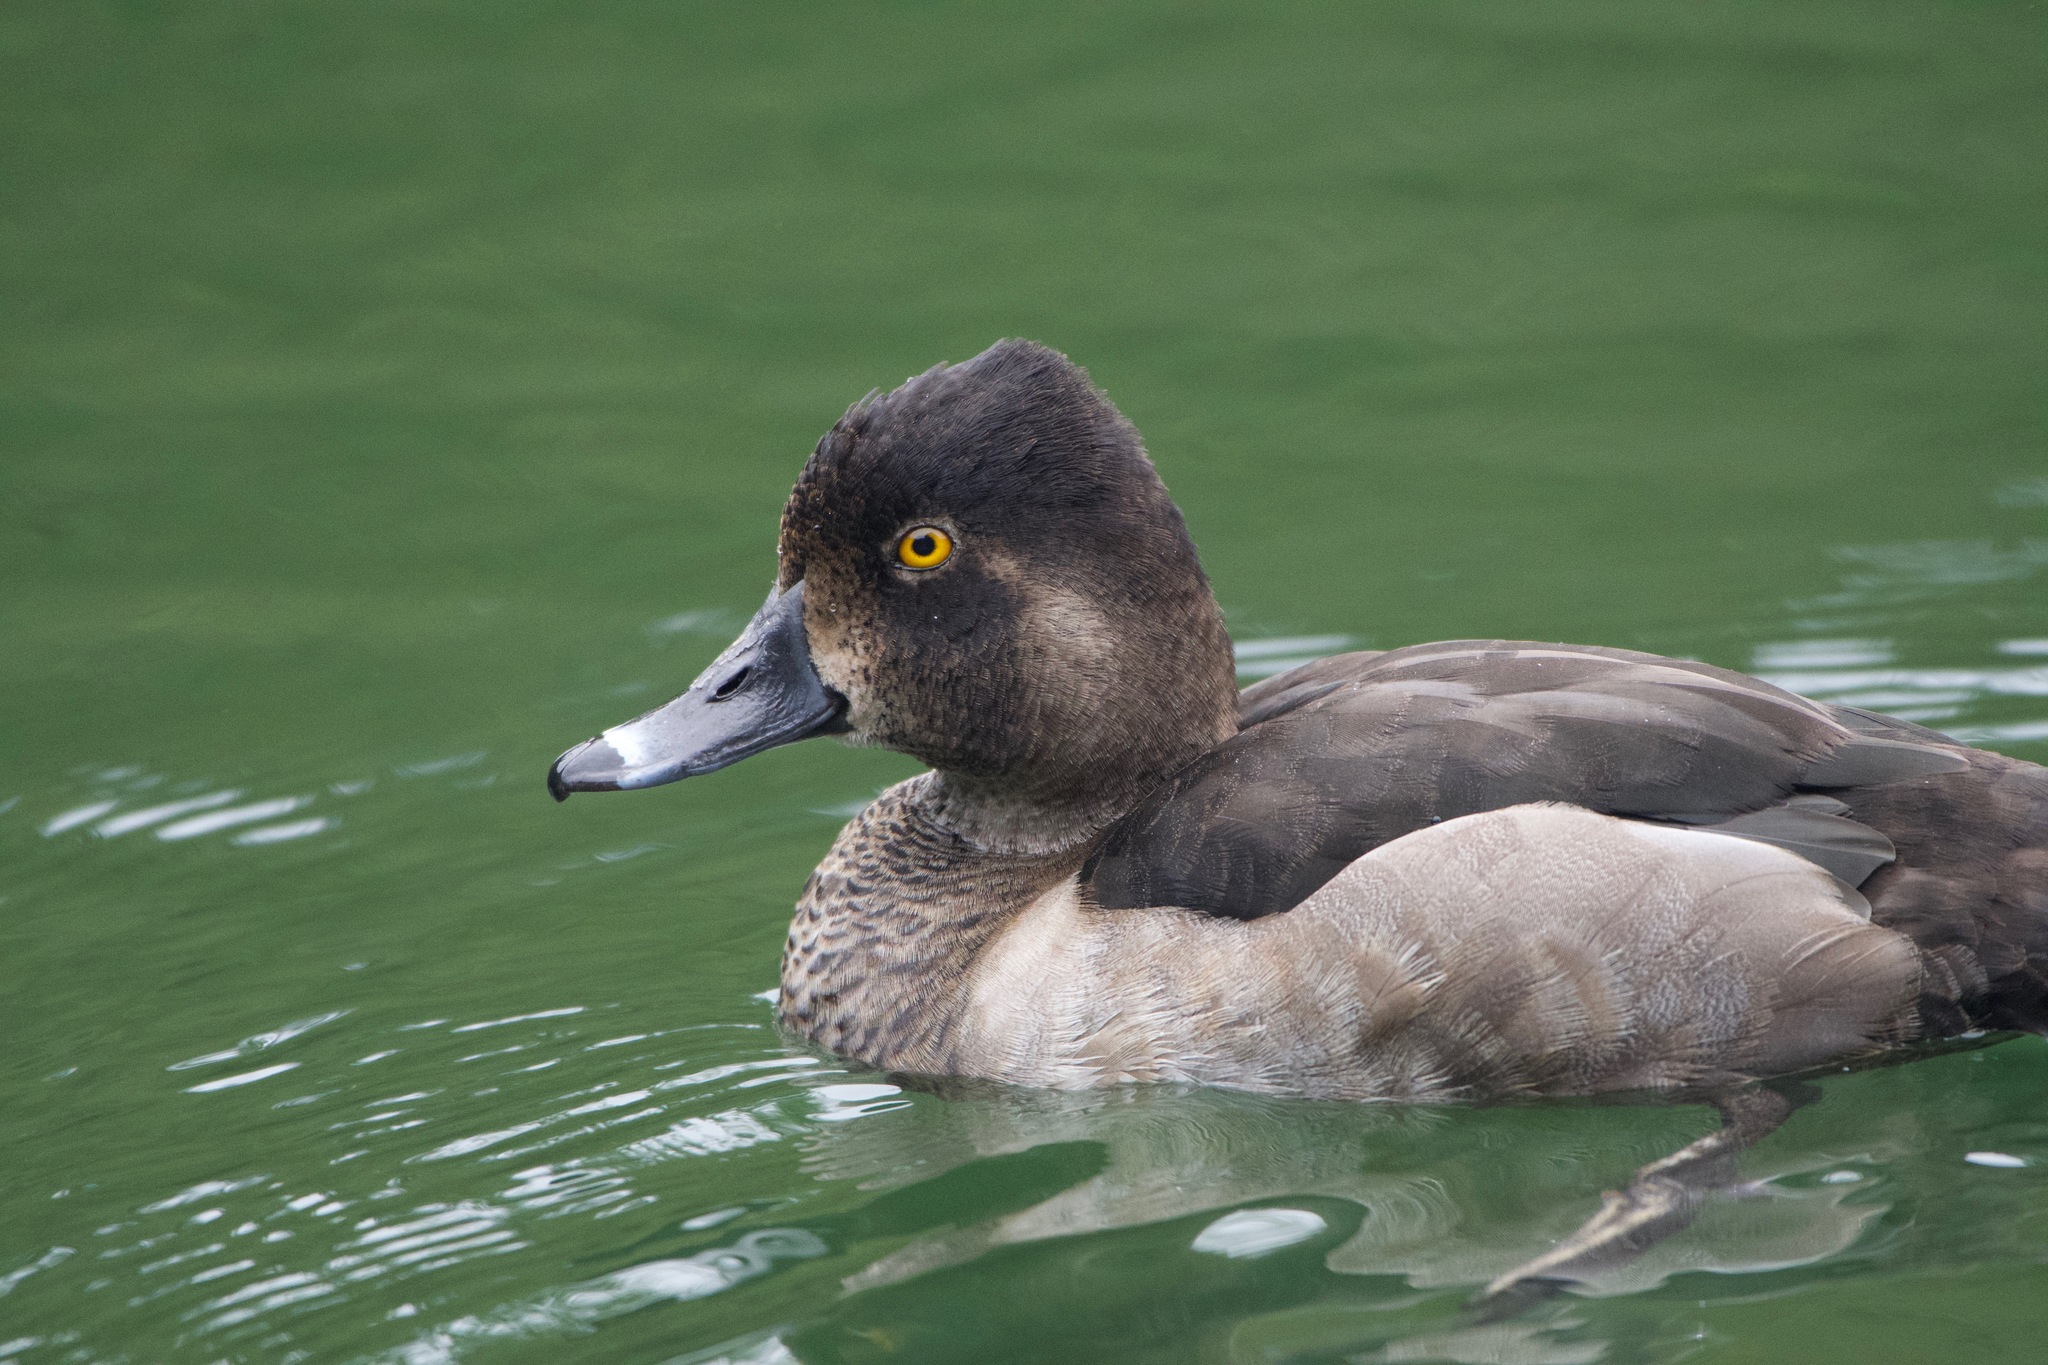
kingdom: Animalia
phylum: Chordata
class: Aves
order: Anseriformes
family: Anatidae
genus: Aythya
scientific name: Aythya collaris
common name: Ring-necked duck
